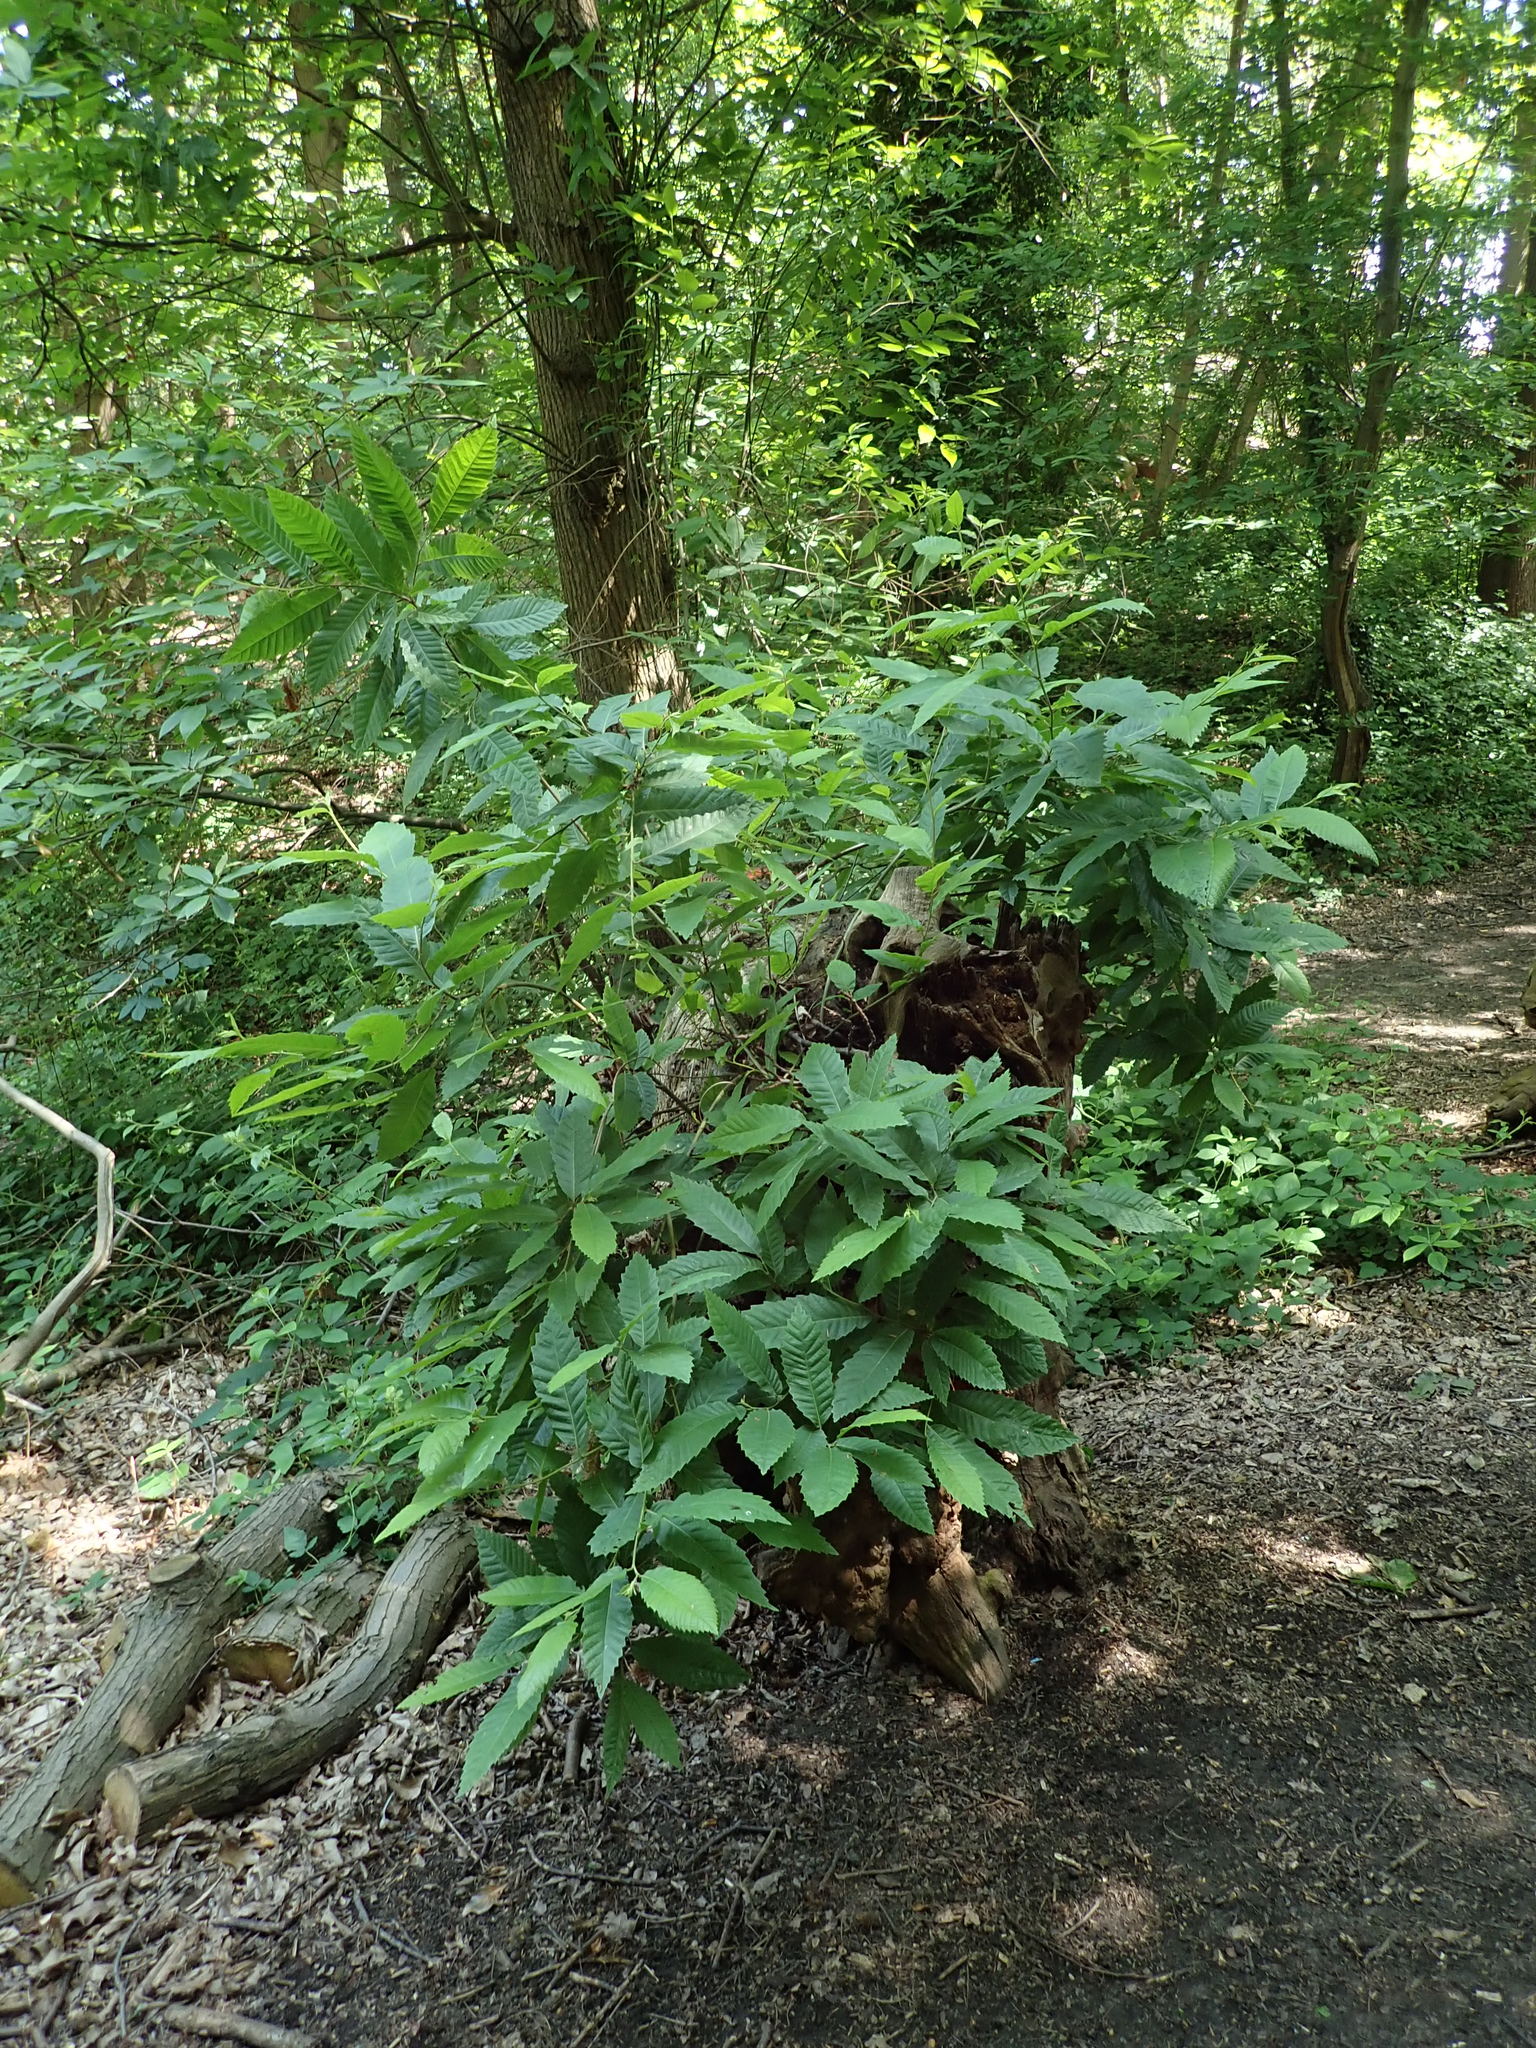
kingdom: Plantae
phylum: Tracheophyta
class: Magnoliopsida
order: Fagales
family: Fagaceae
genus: Castanea
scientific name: Castanea sativa
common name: Sweet chestnut
